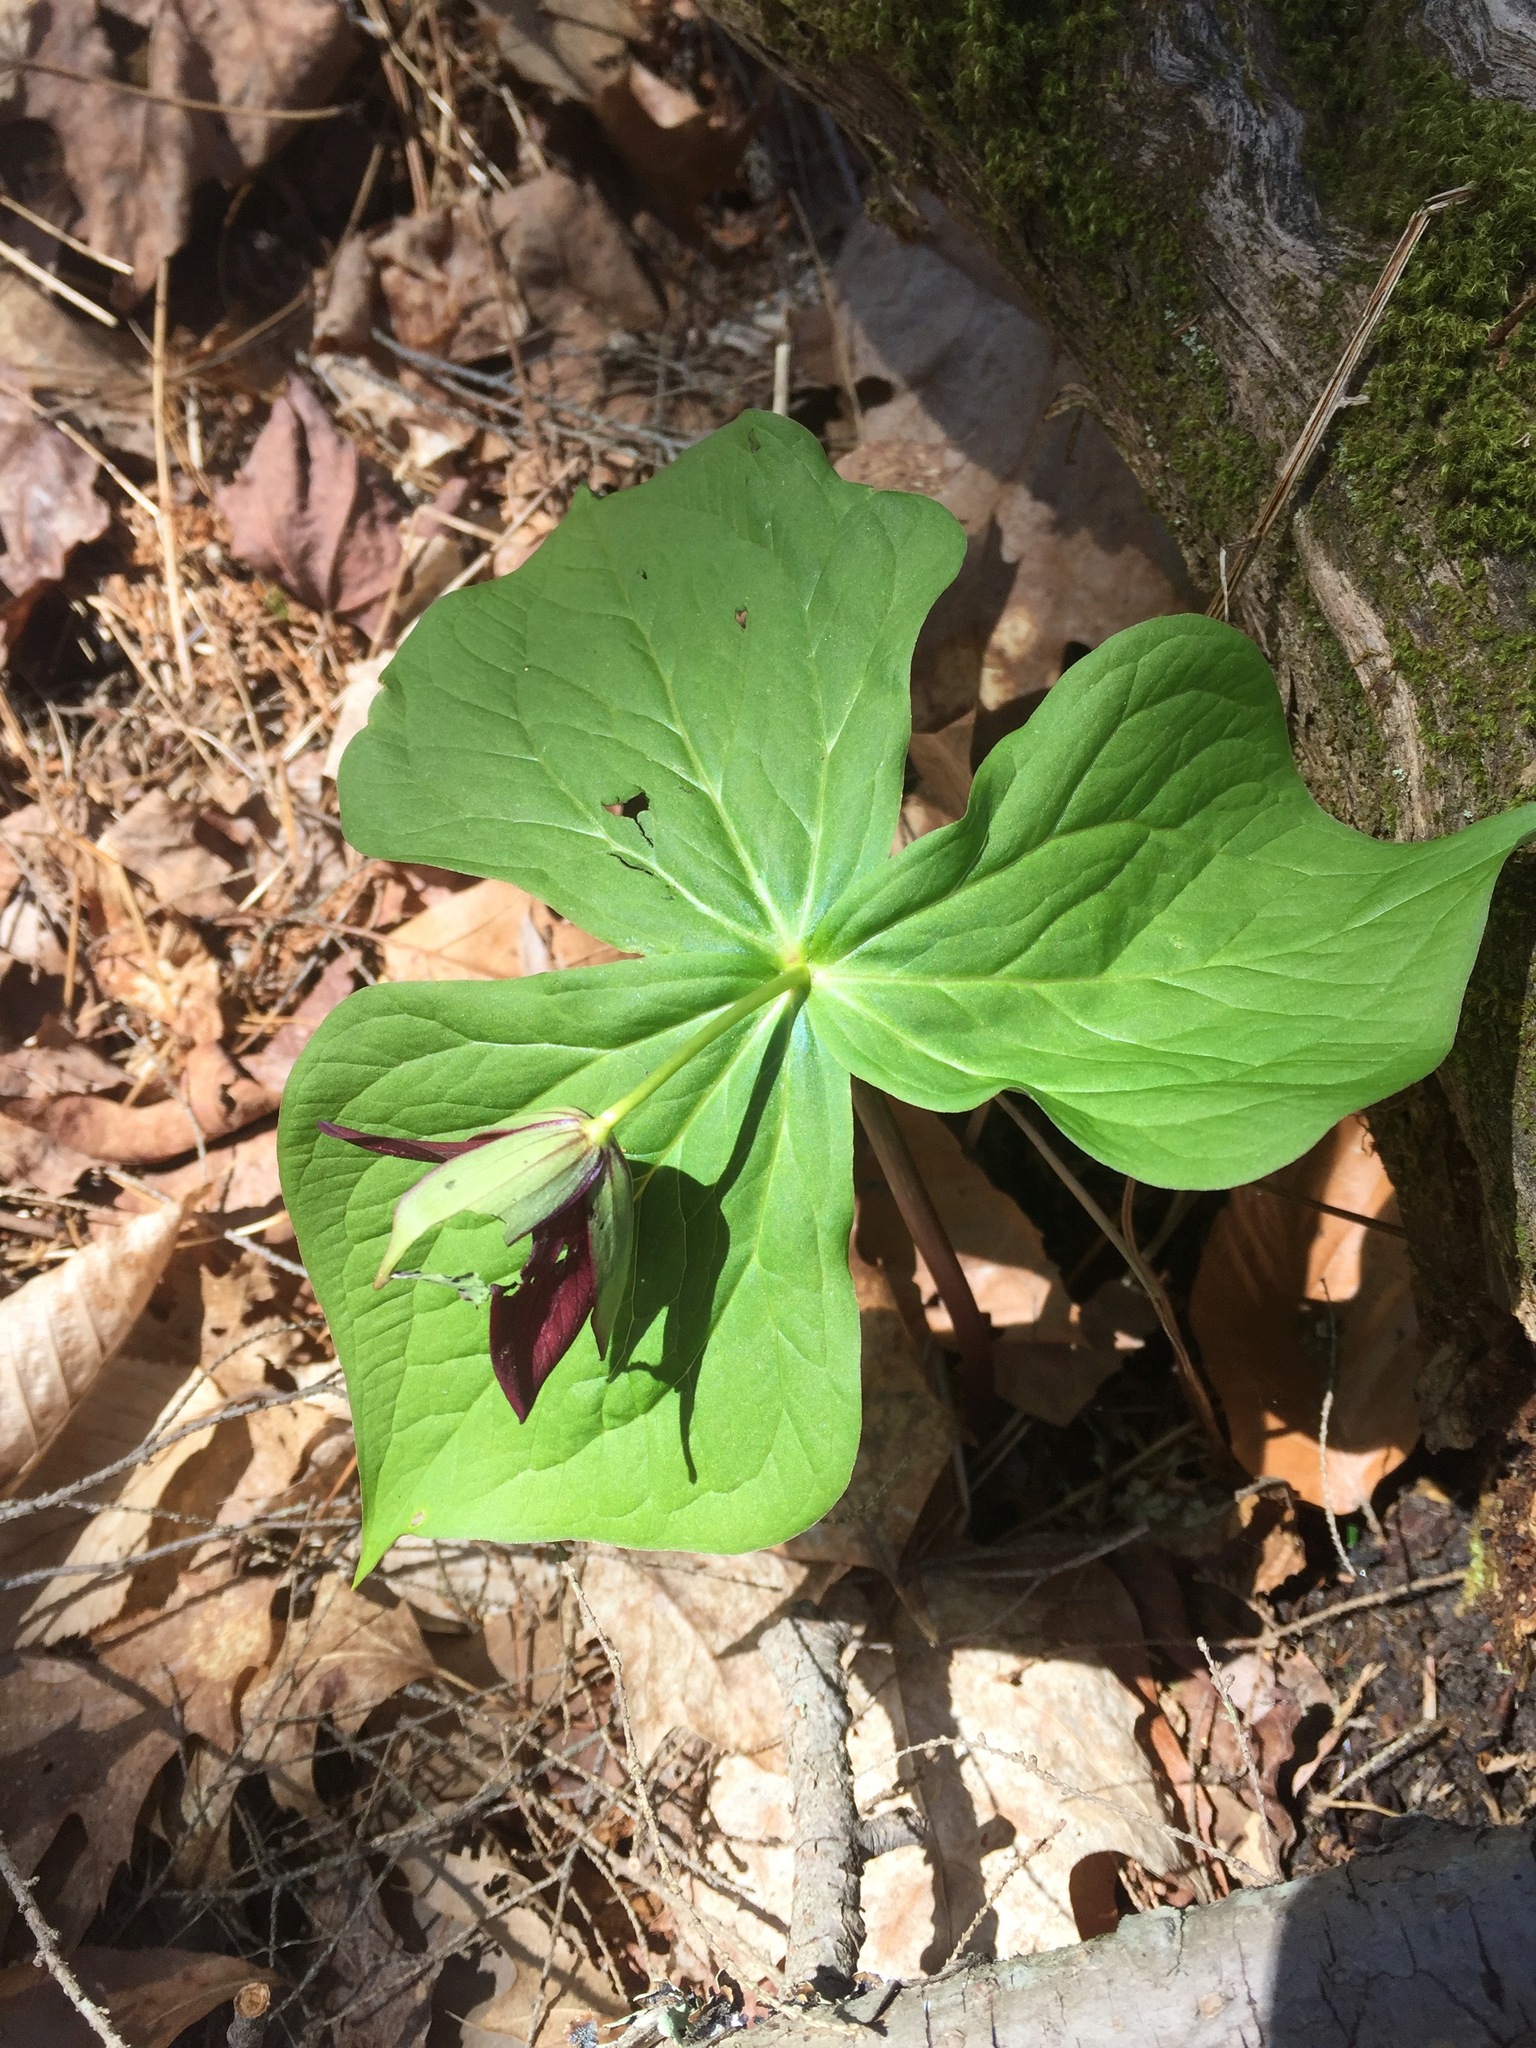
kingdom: Plantae
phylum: Tracheophyta
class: Liliopsida
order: Liliales
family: Melanthiaceae
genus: Trillium
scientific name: Trillium erectum
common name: Purple trillium
